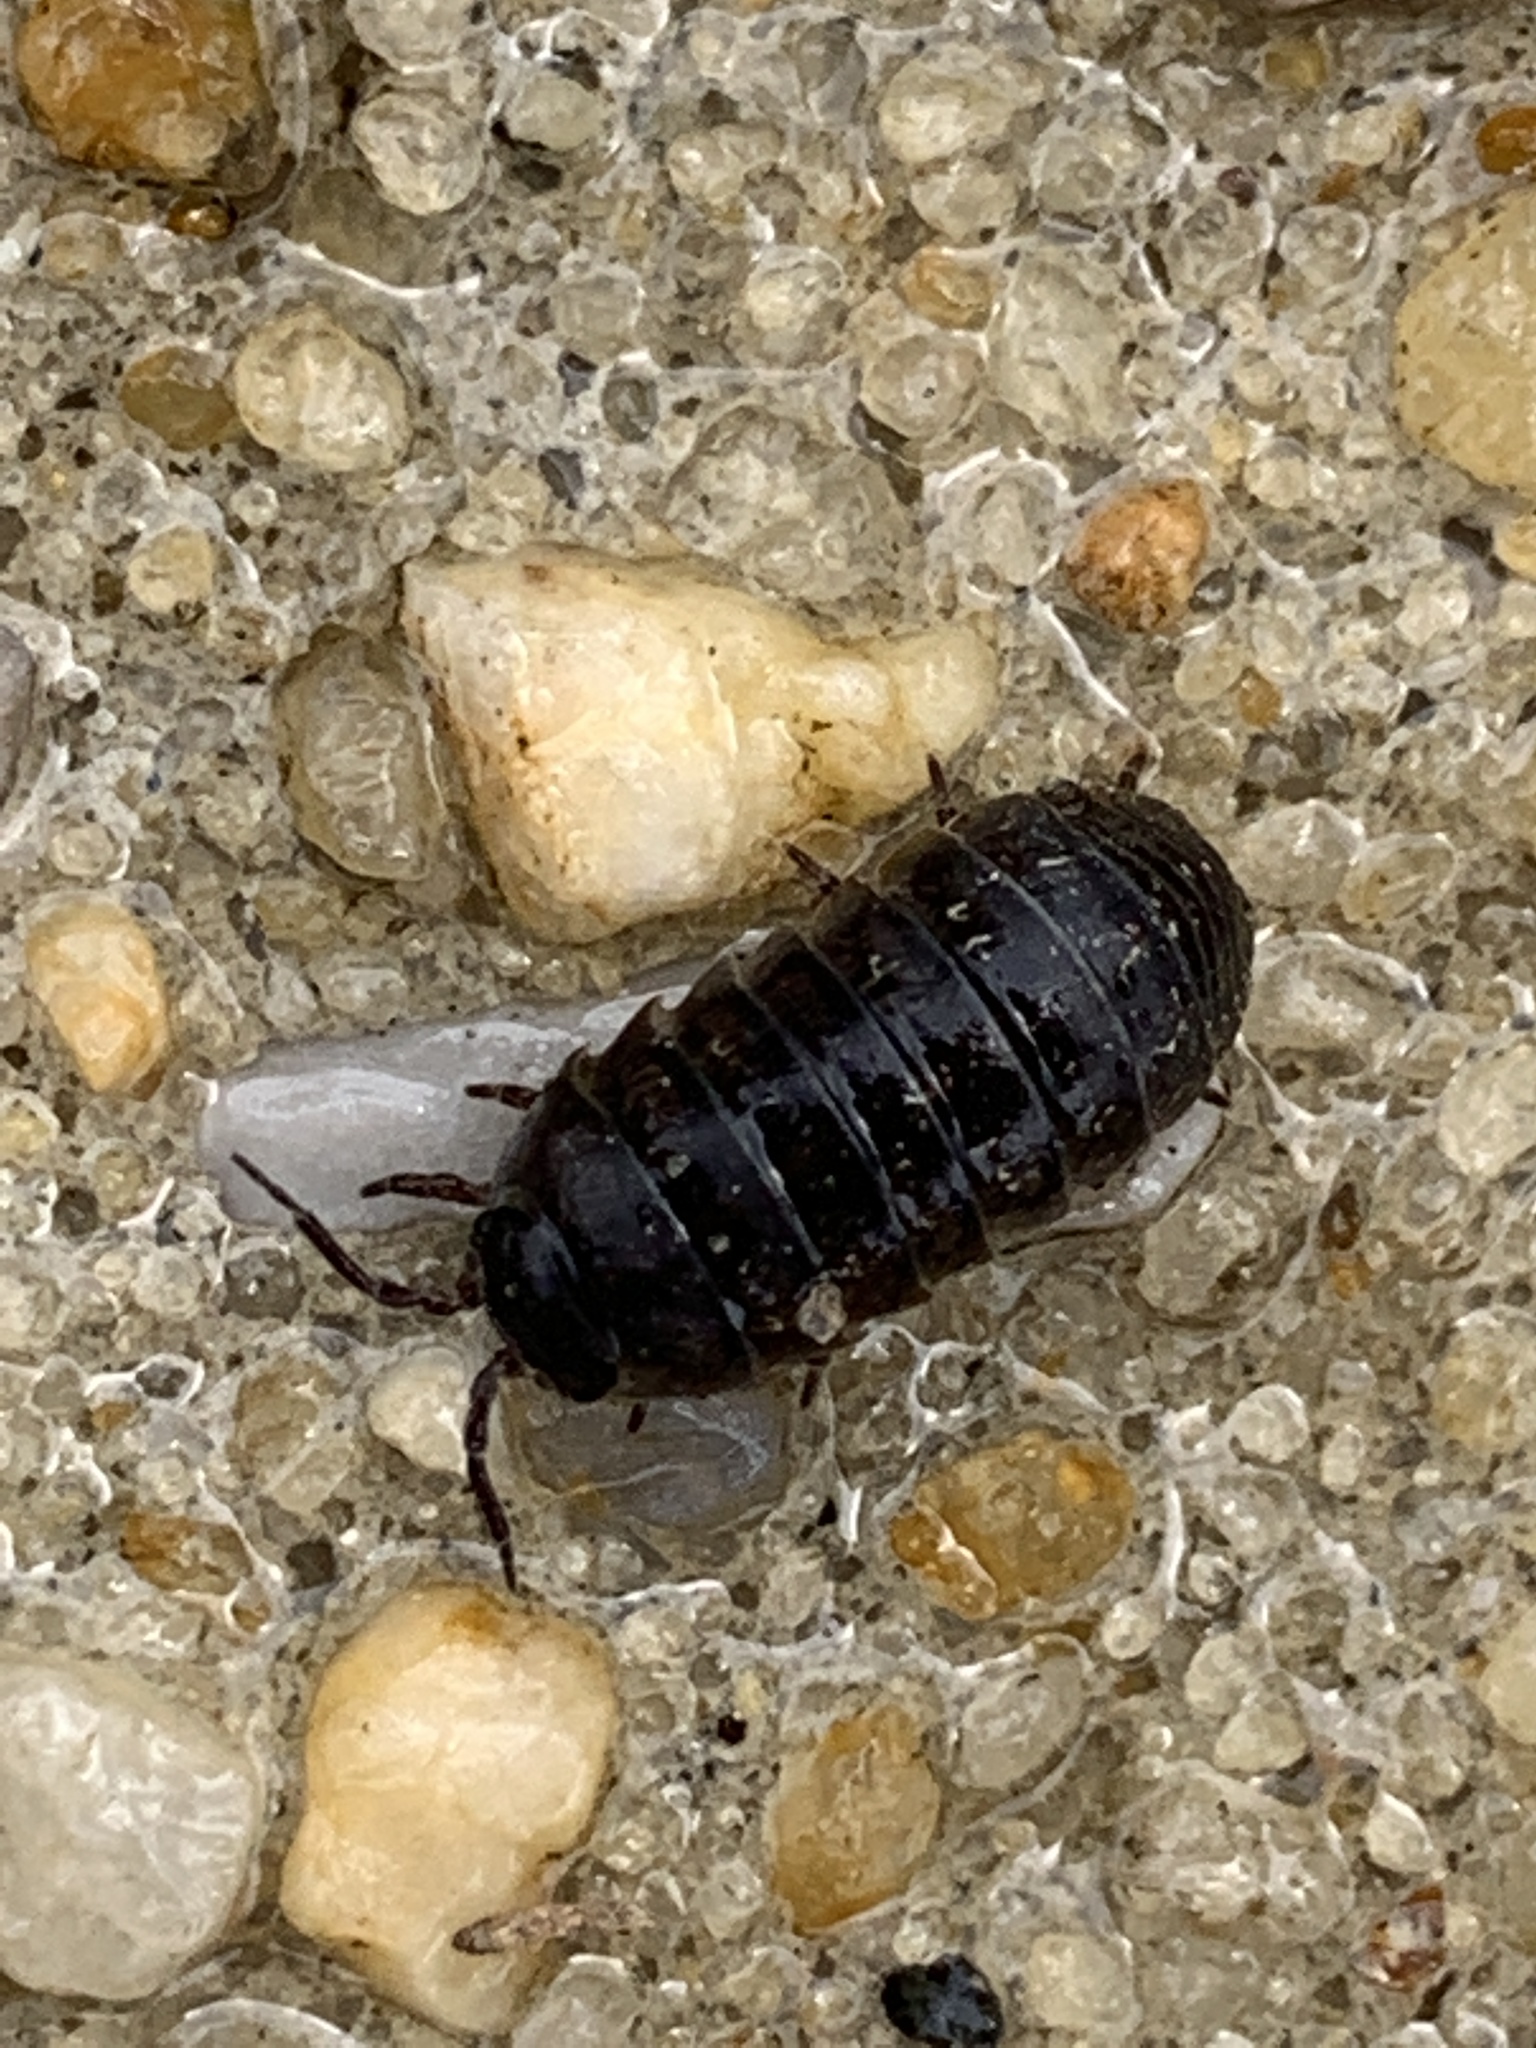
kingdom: Animalia
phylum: Arthropoda
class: Malacostraca
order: Isopoda
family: Armadillidiidae
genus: Armadillidium
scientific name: Armadillidium vulgare
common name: Common pill woodlouse
